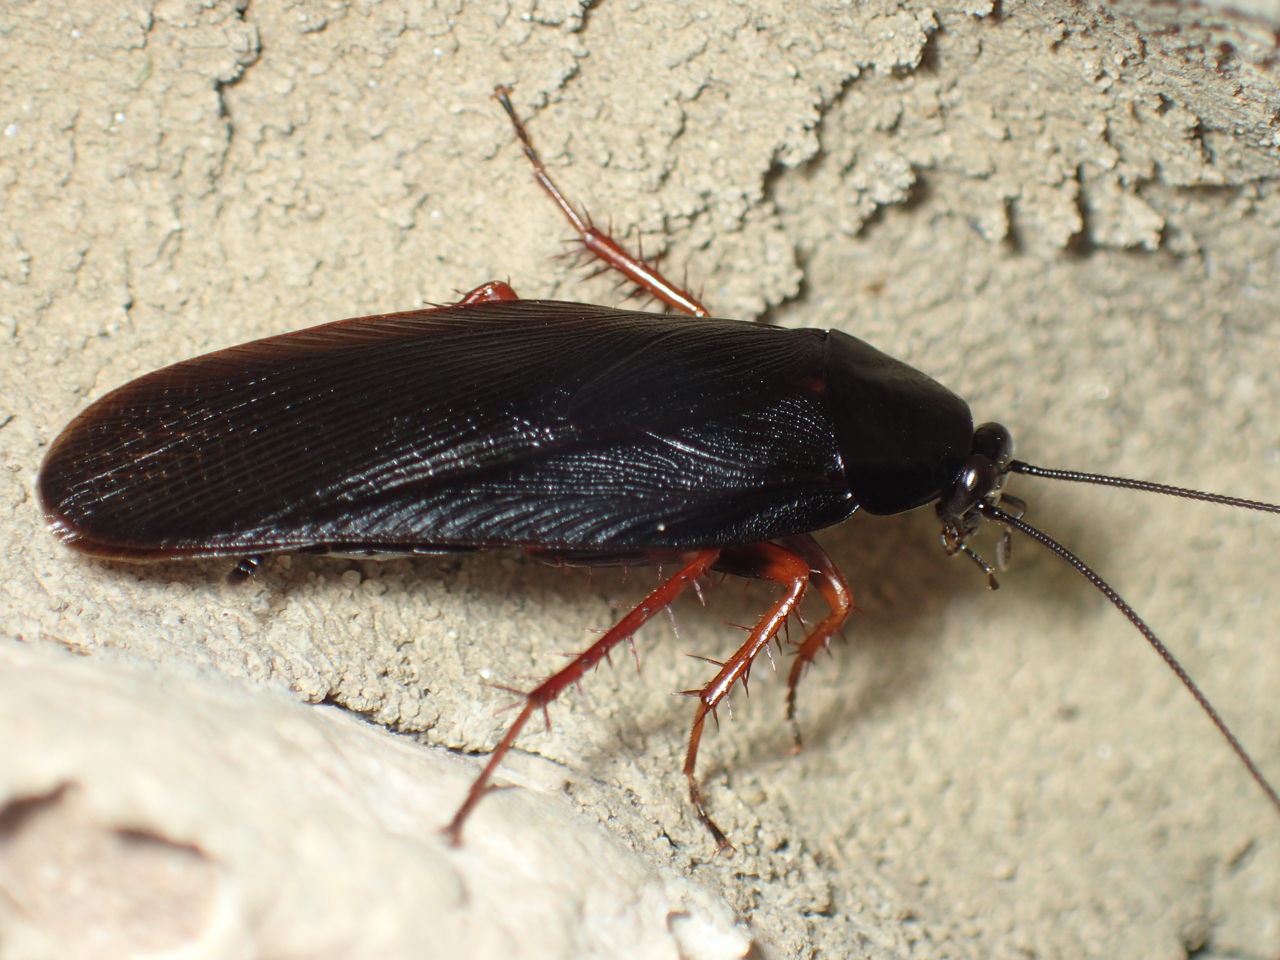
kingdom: Animalia
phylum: Arthropoda
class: Insecta
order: Blattodea
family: Ectobiidae
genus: Ischnoptera
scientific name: Ischnoptera deropeltiformis
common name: Dark wood cockroach
